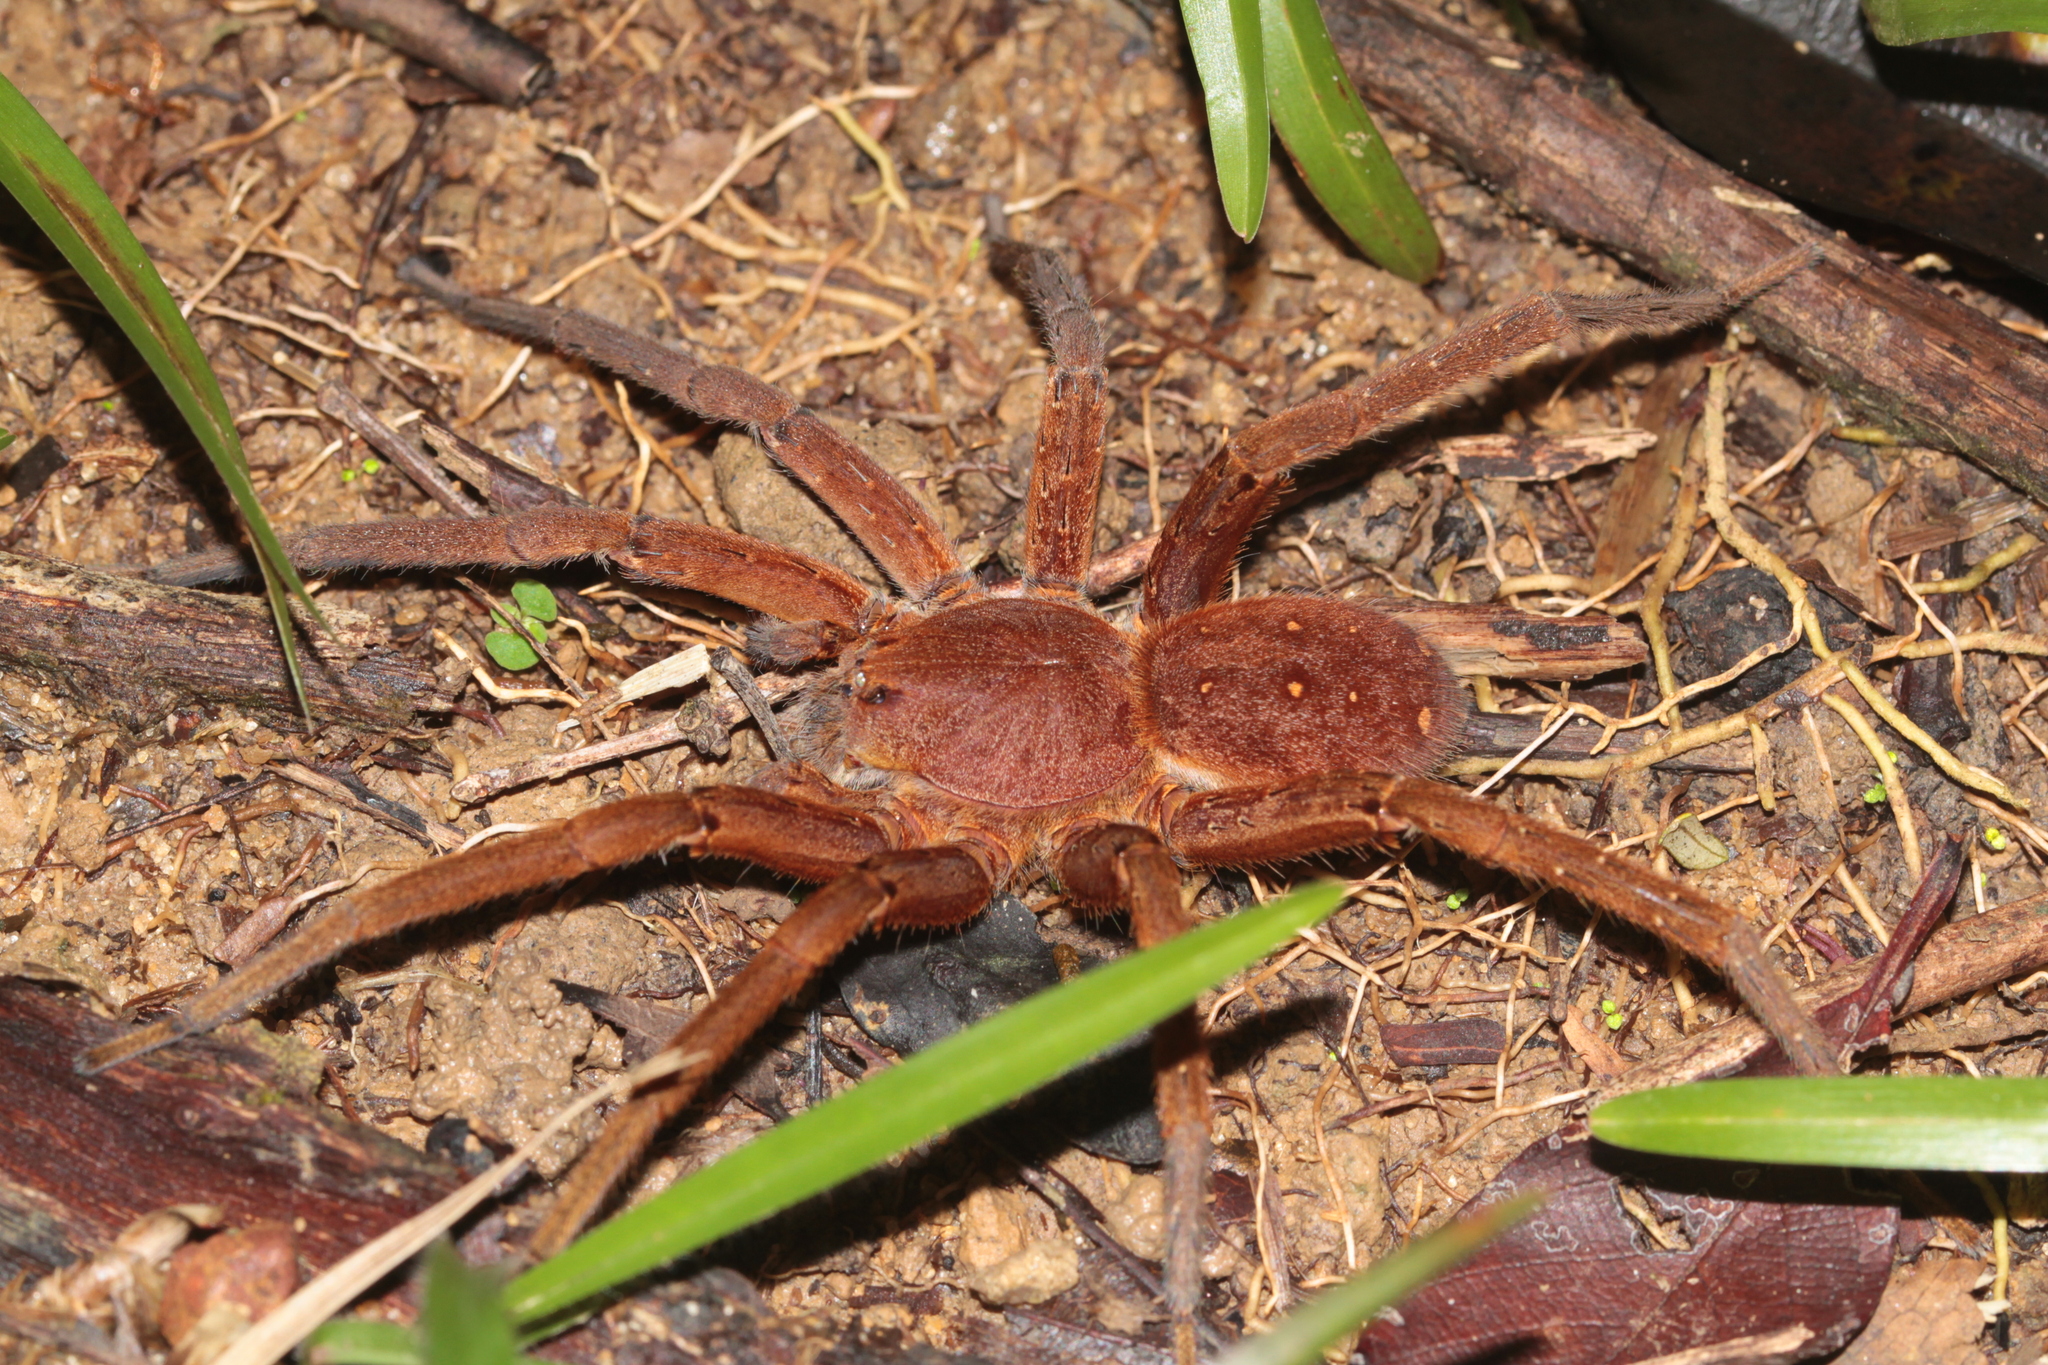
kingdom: Animalia
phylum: Arthropoda
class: Arachnida
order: Araneae
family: Ctenidae
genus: Ancylometes
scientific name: Ancylometes rufus
